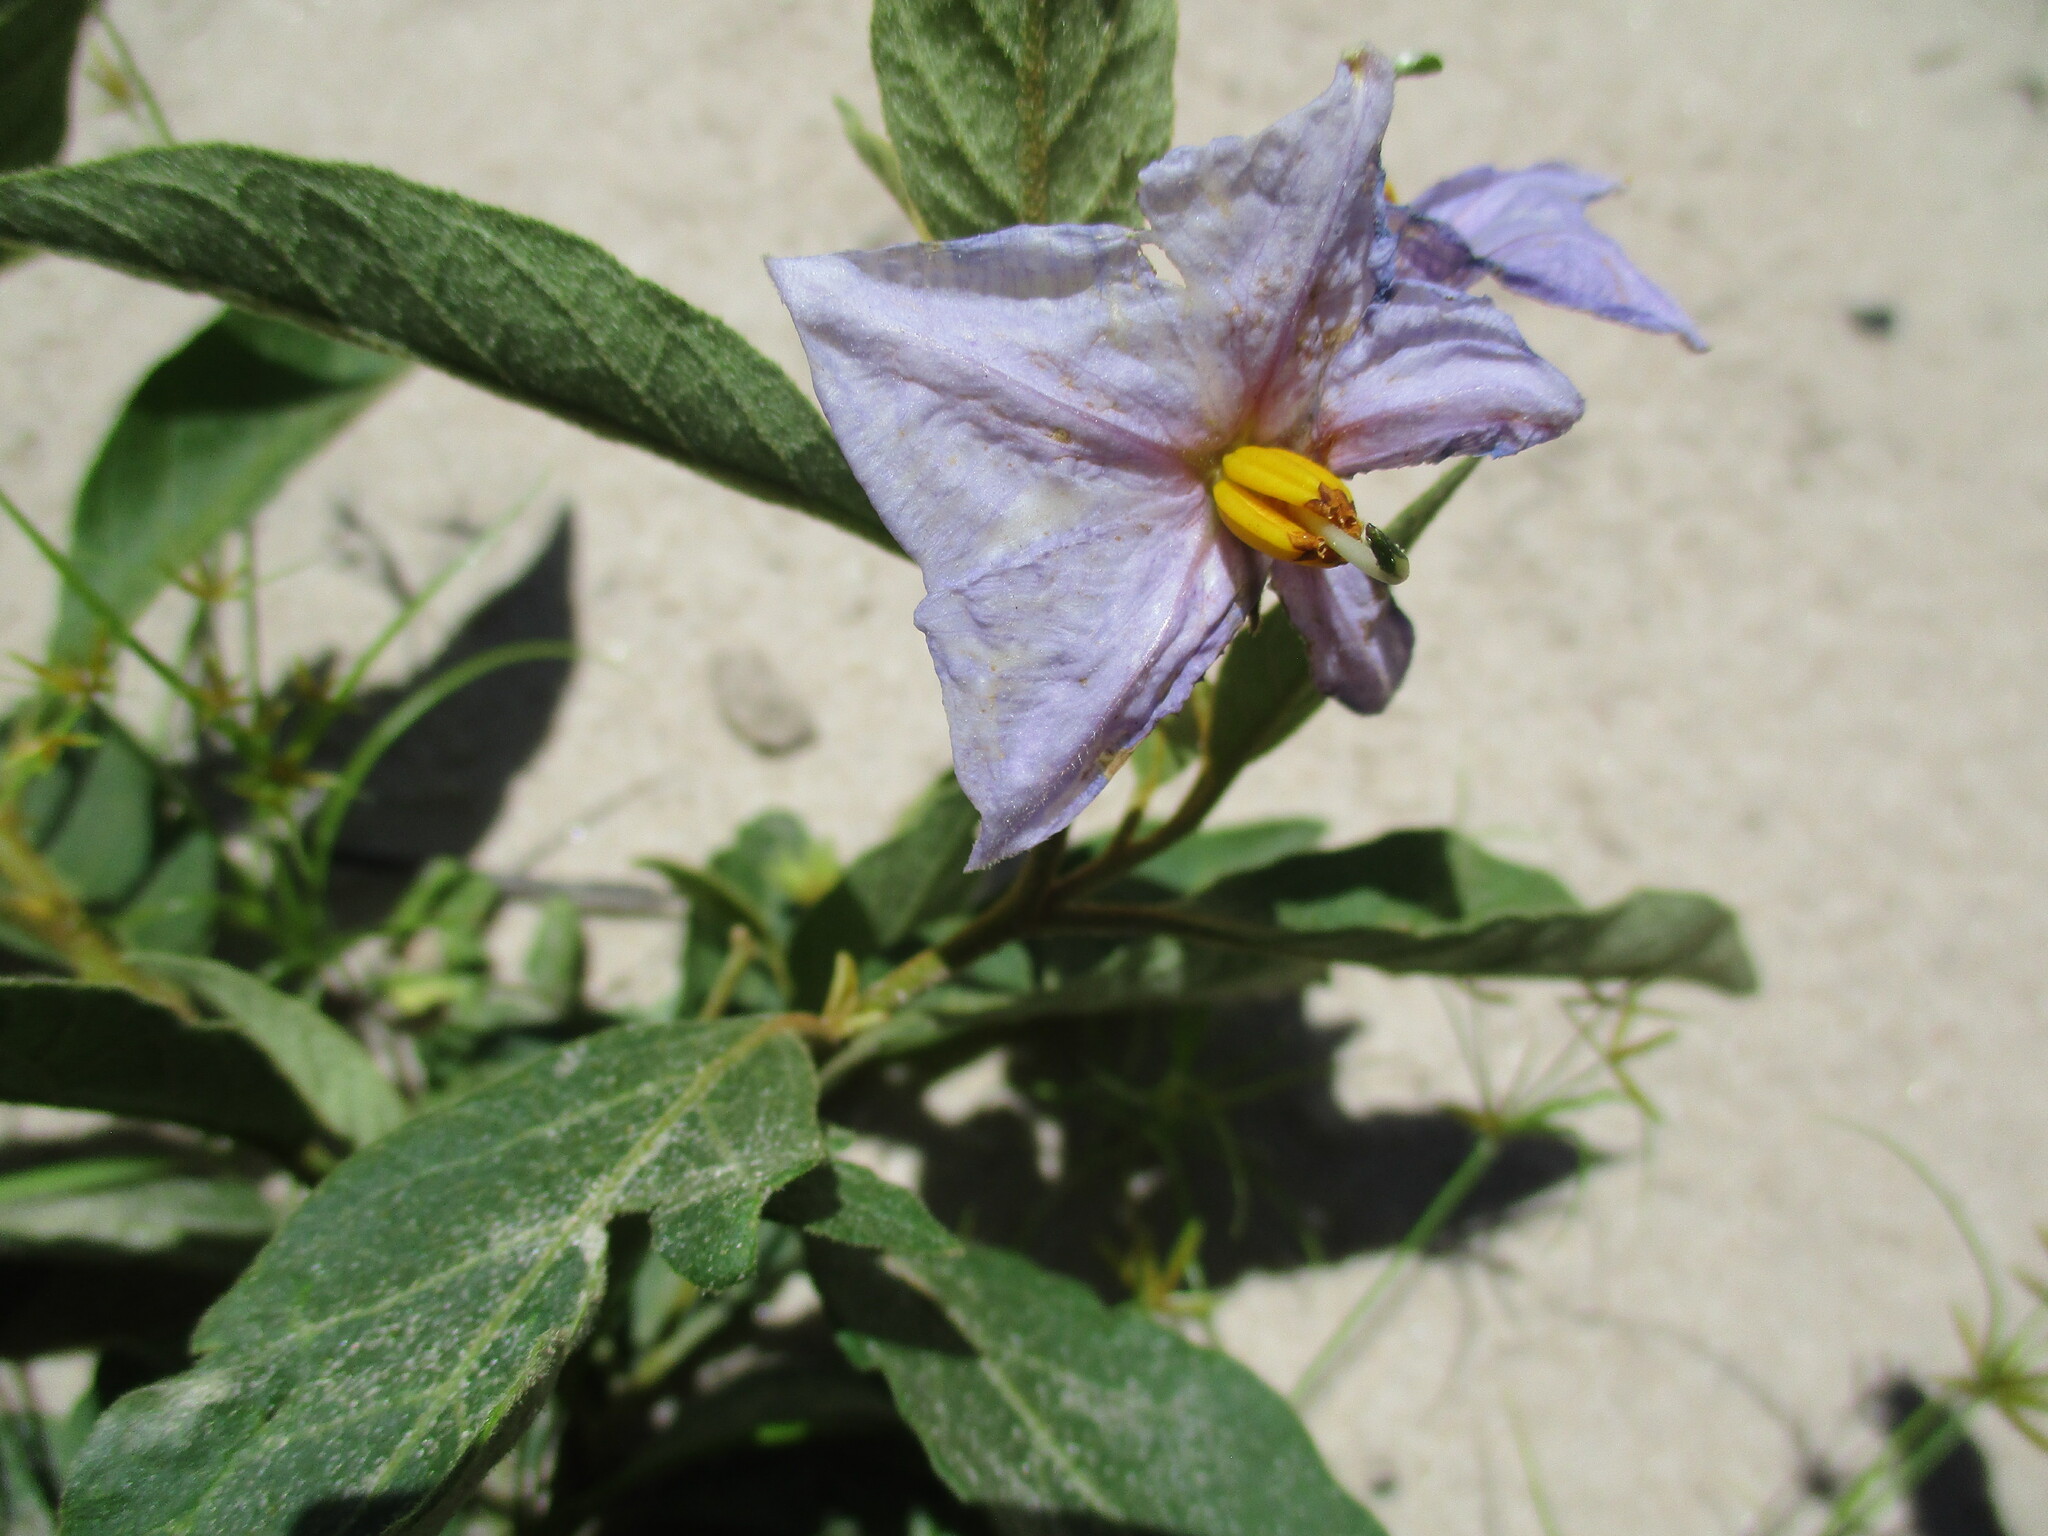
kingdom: Plantae
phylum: Tracheophyta
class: Magnoliopsida
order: Solanales
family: Solanaceae
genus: Solanum
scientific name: Solanum campylacanthum
